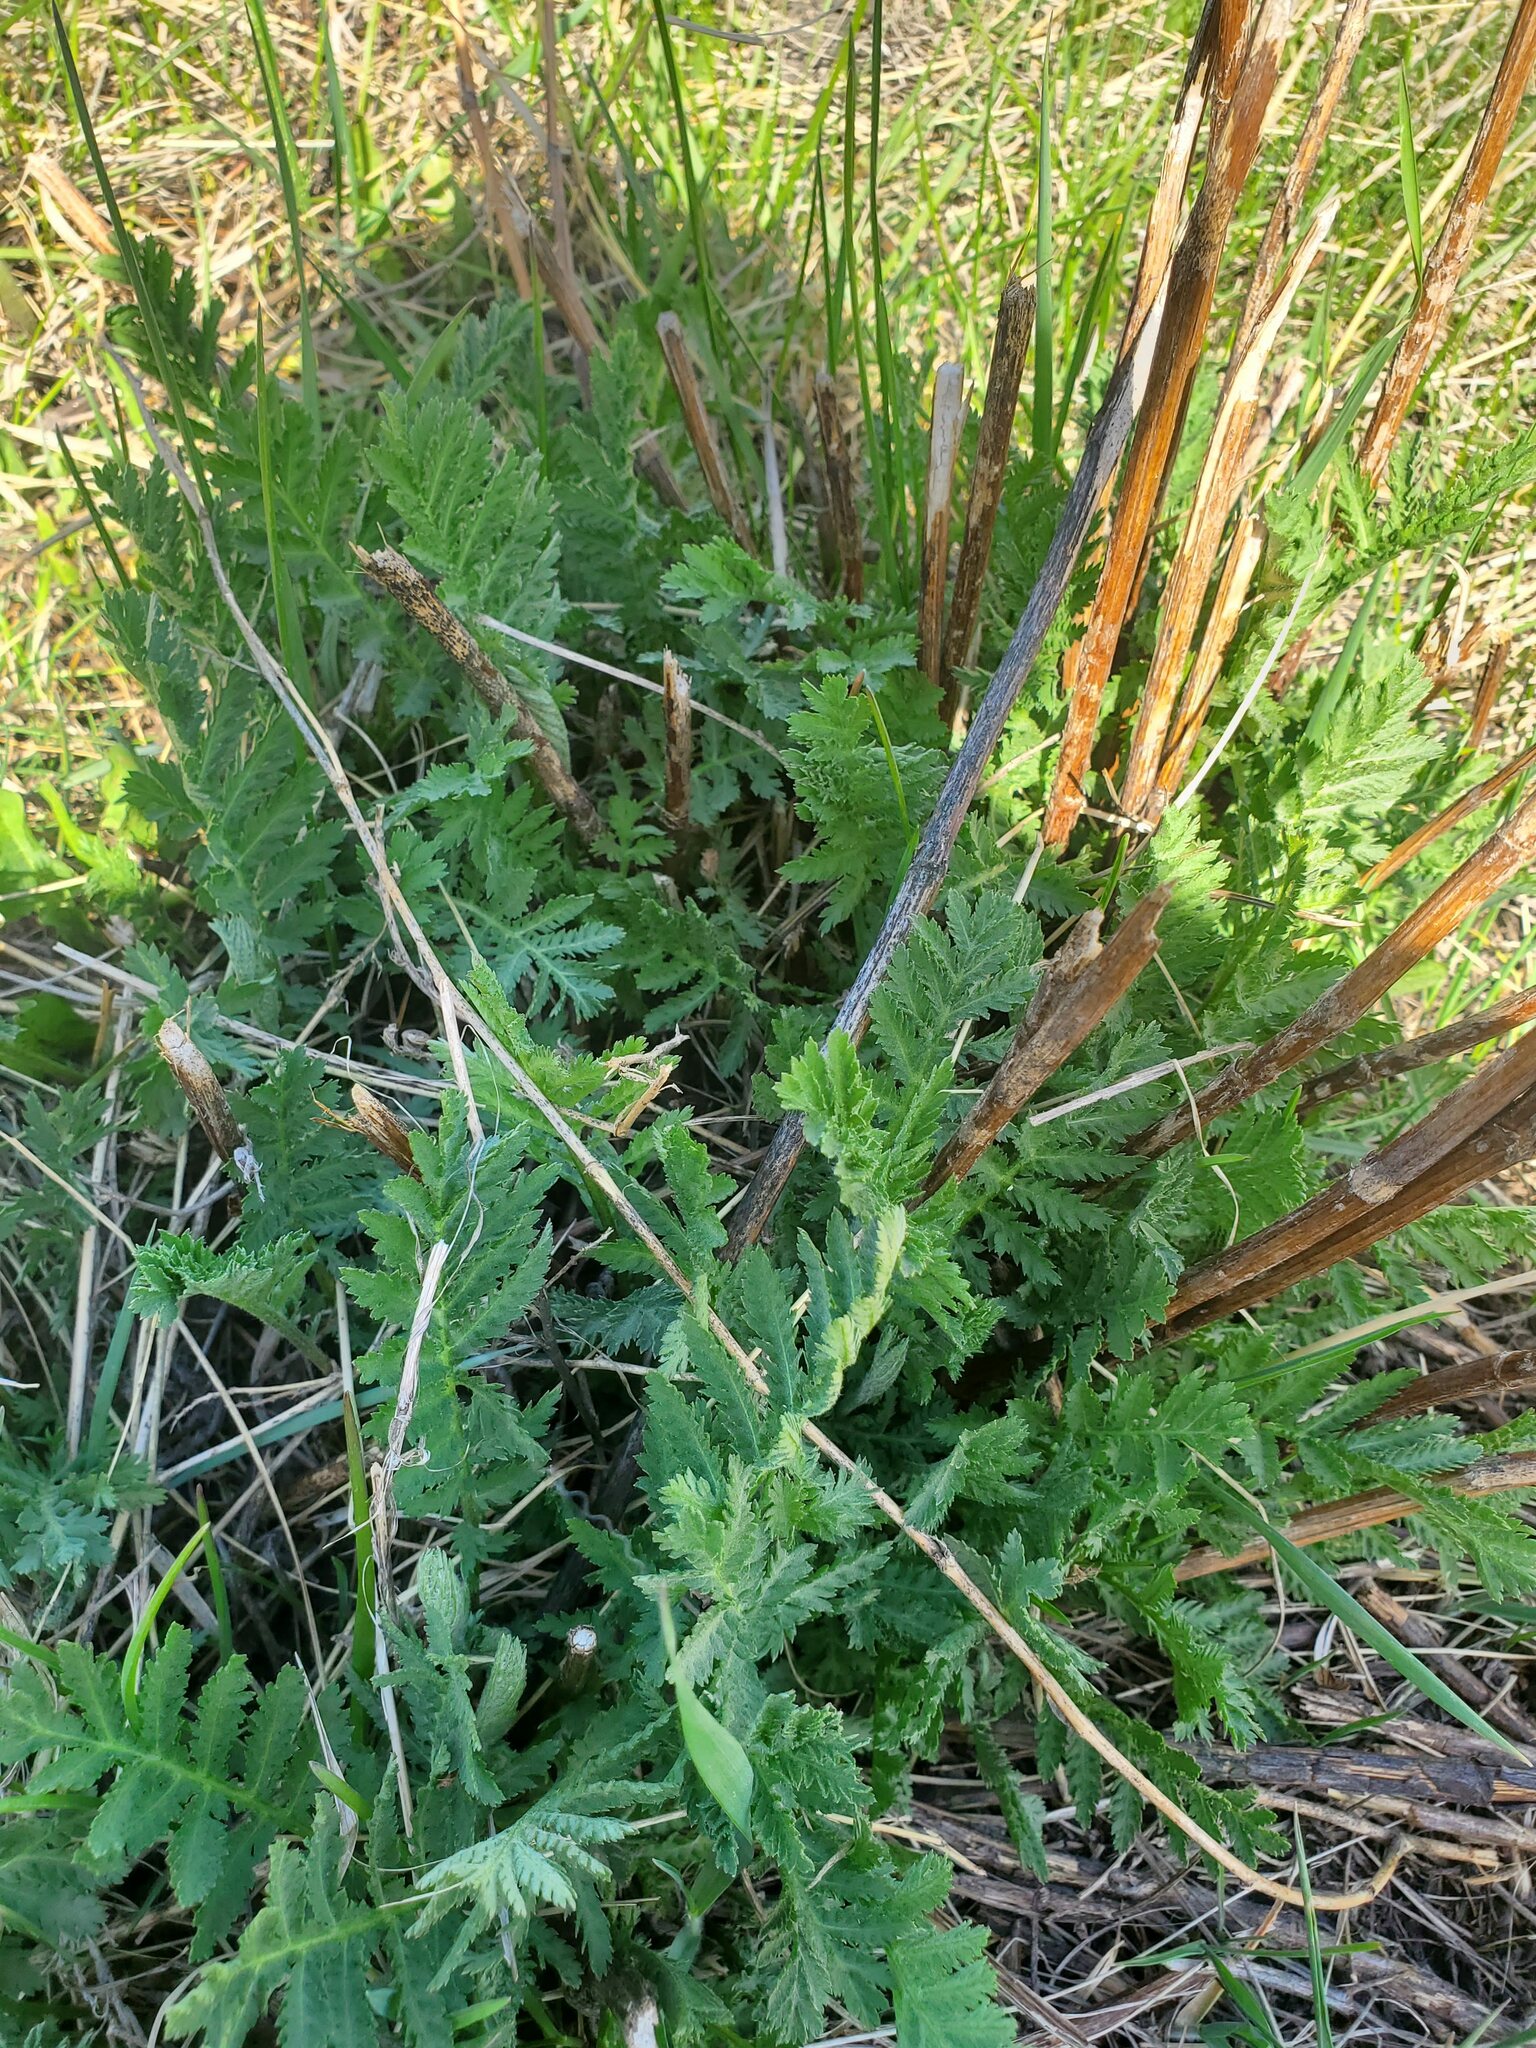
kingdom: Plantae
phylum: Tracheophyta
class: Magnoliopsida
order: Asterales
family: Asteraceae
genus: Tanacetum
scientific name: Tanacetum vulgare
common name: Common tansy
